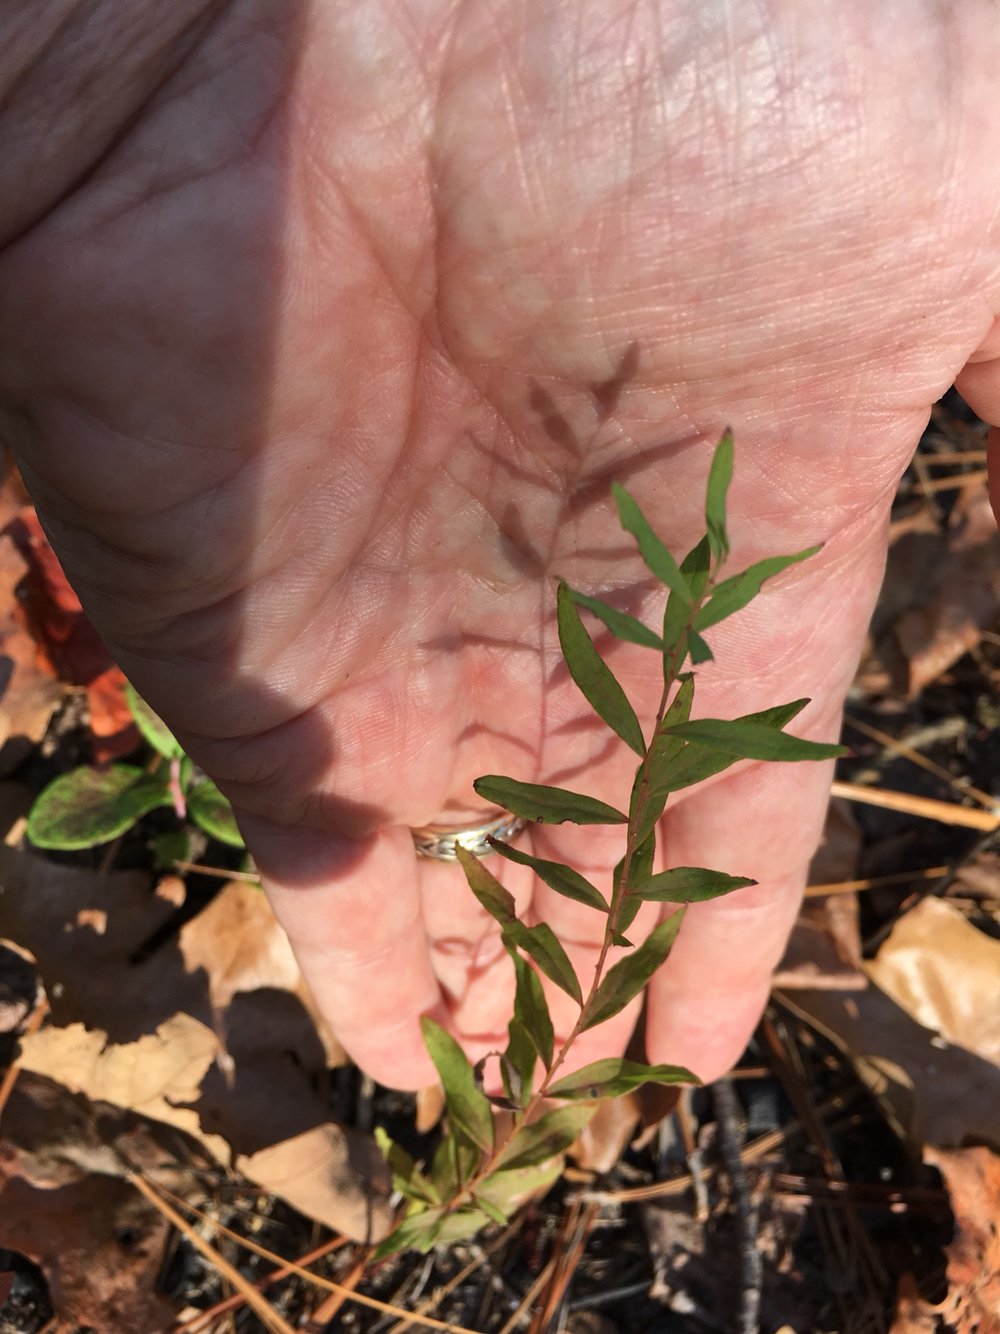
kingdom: Plantae
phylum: Tracheophyta
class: Magnoliopsida
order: Santalales
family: Comandraceae
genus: Comandra
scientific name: Comandra umbellata
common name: Bastard toadflax
